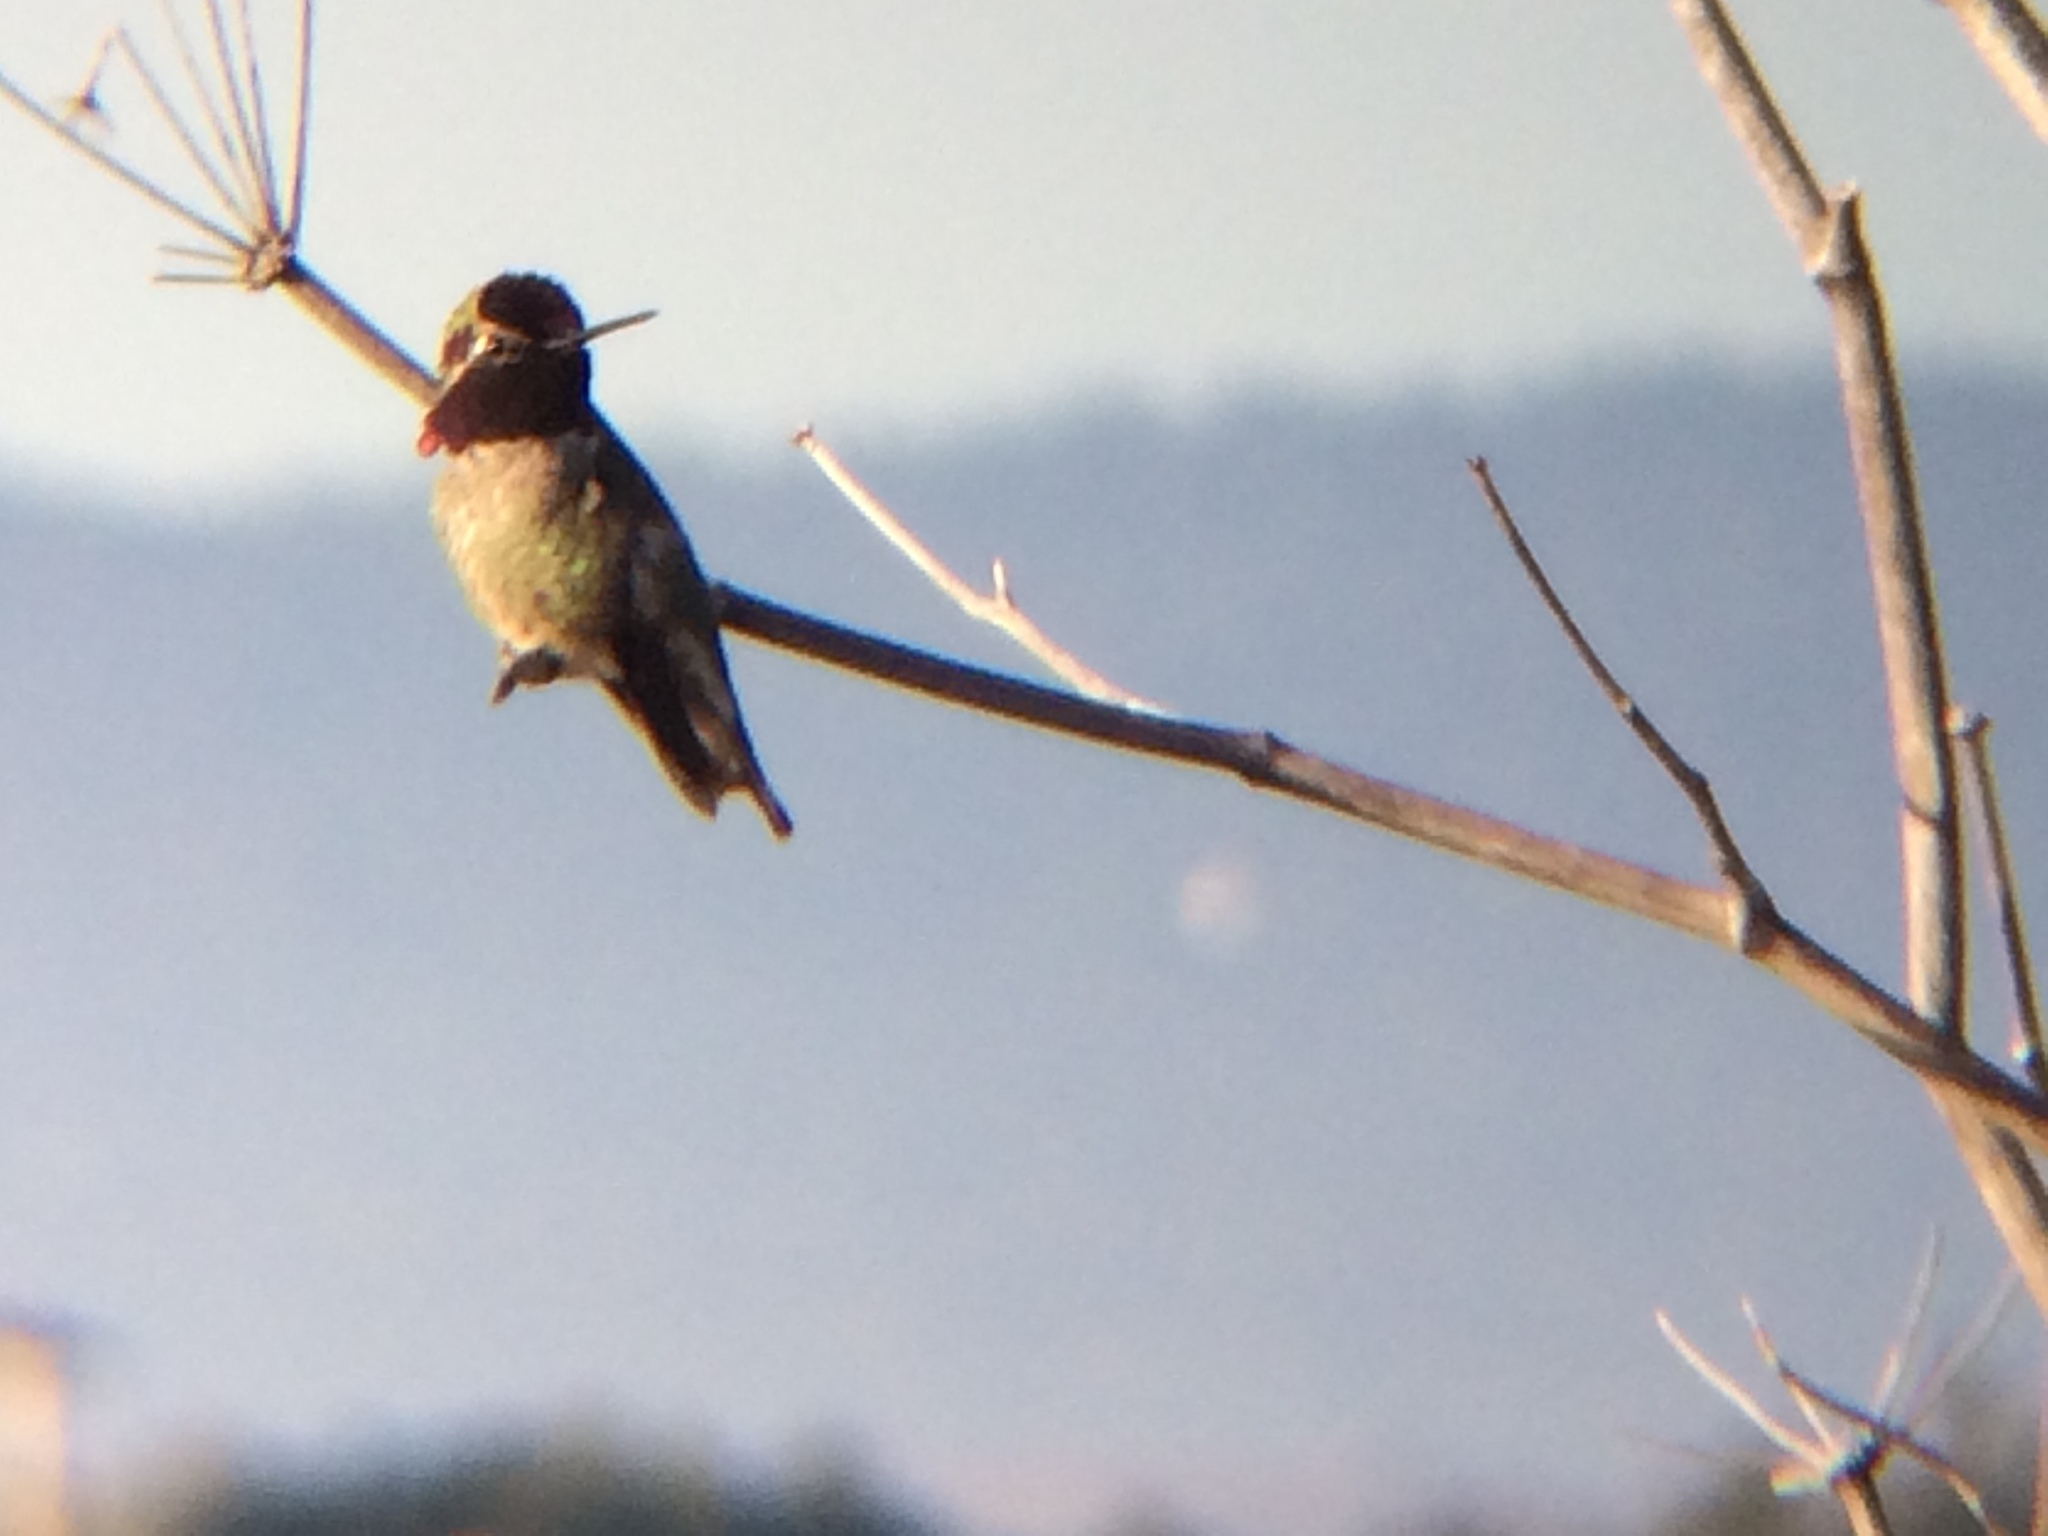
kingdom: Animalia
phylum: Chordata
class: Aves
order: Apodiformes
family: Trochilidae
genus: Calypte
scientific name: Calypte anna
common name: Anna's hummingbird
